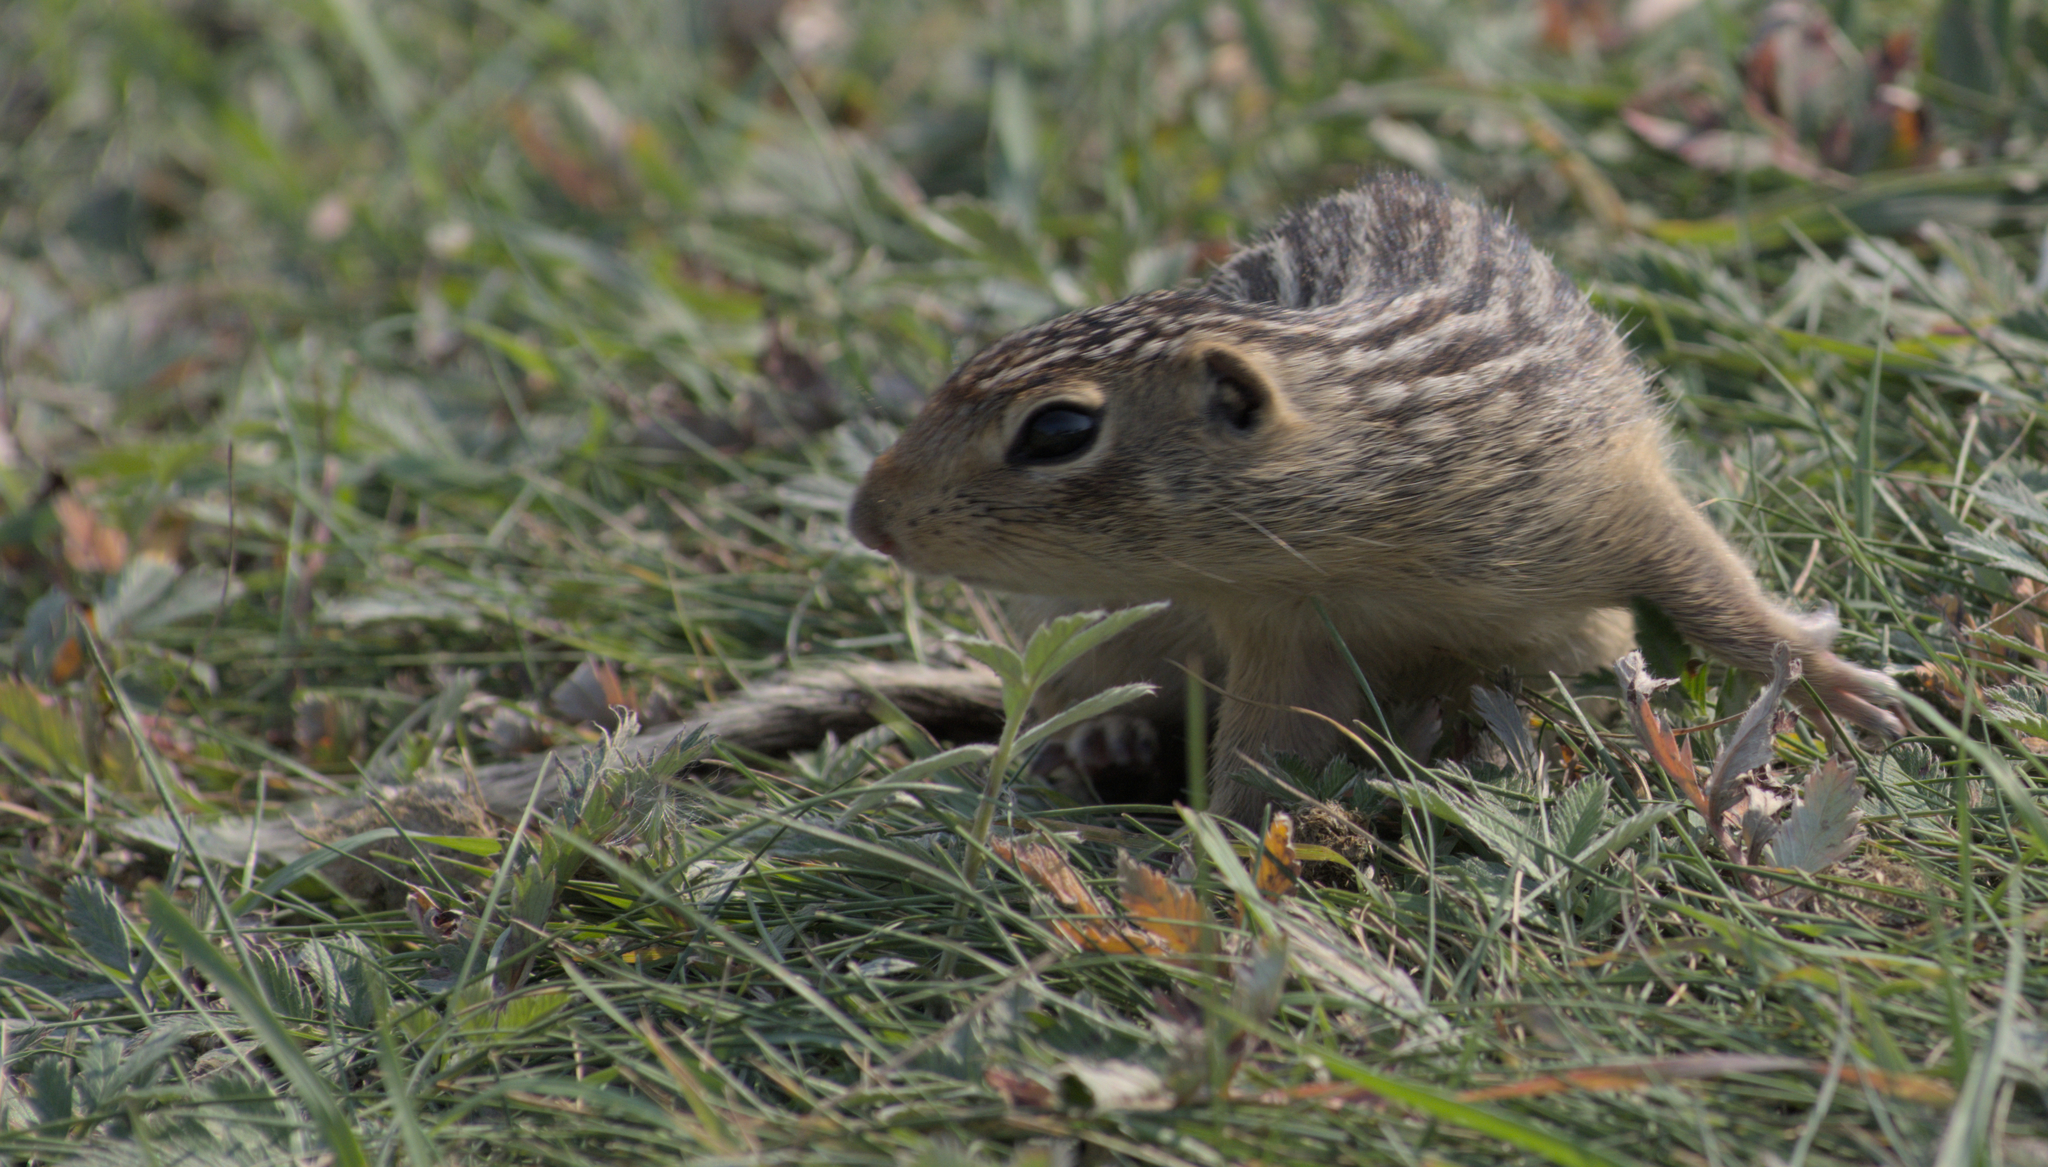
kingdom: Animalia
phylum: Chordata
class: Mammalia
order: Rodentia
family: Sciuridae
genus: Ictidomys
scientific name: Ictidomys tridecemlineatus
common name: Thirteen-lined ground squirrel
